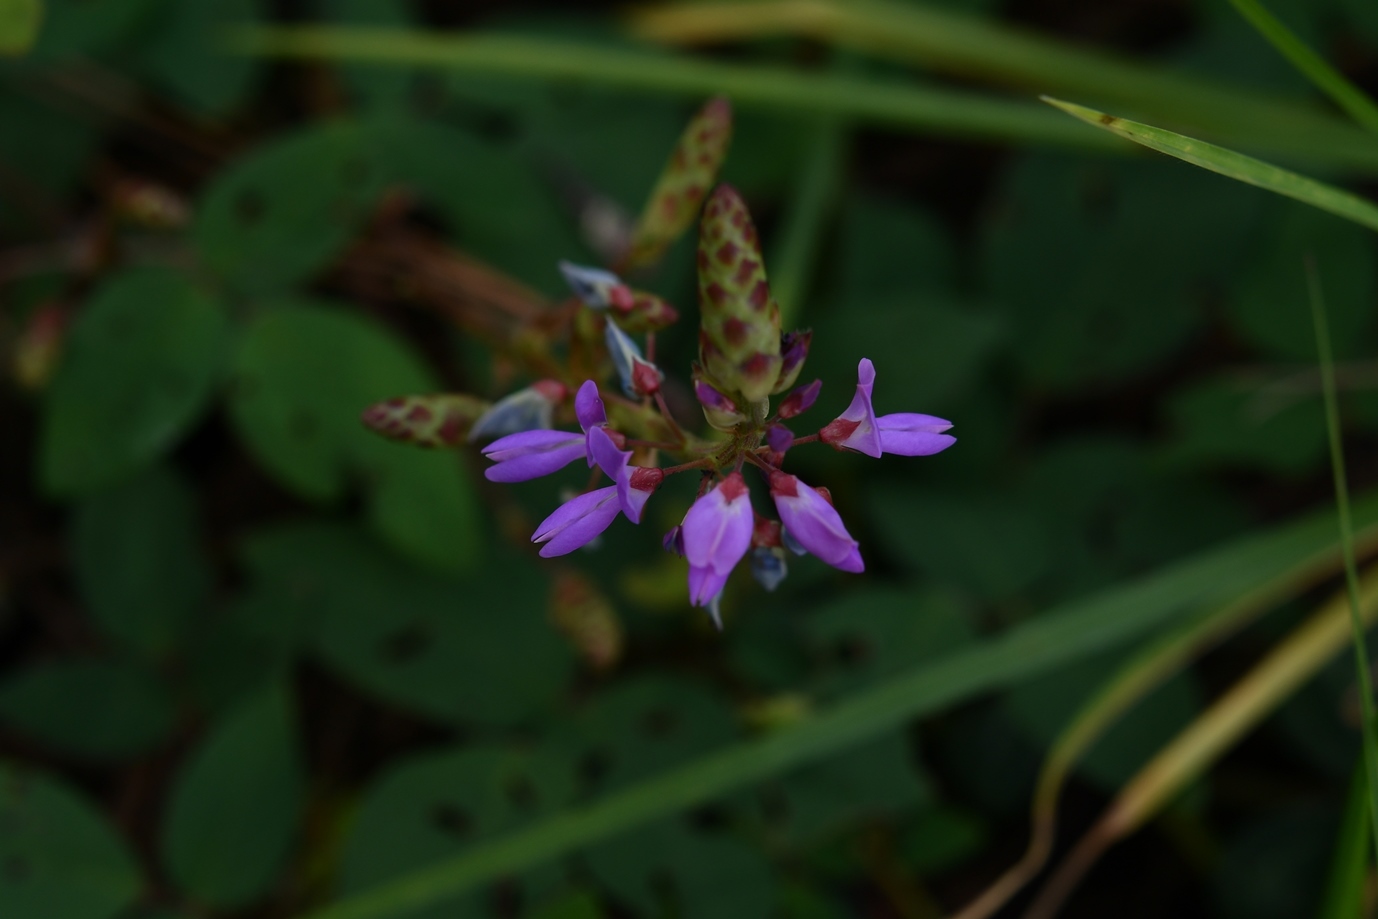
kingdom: Plantae
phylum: Tracheophyta
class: Magnoliopsida
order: Fabales
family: Fabaceae
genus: Desmodium
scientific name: Desmodium pringlei
